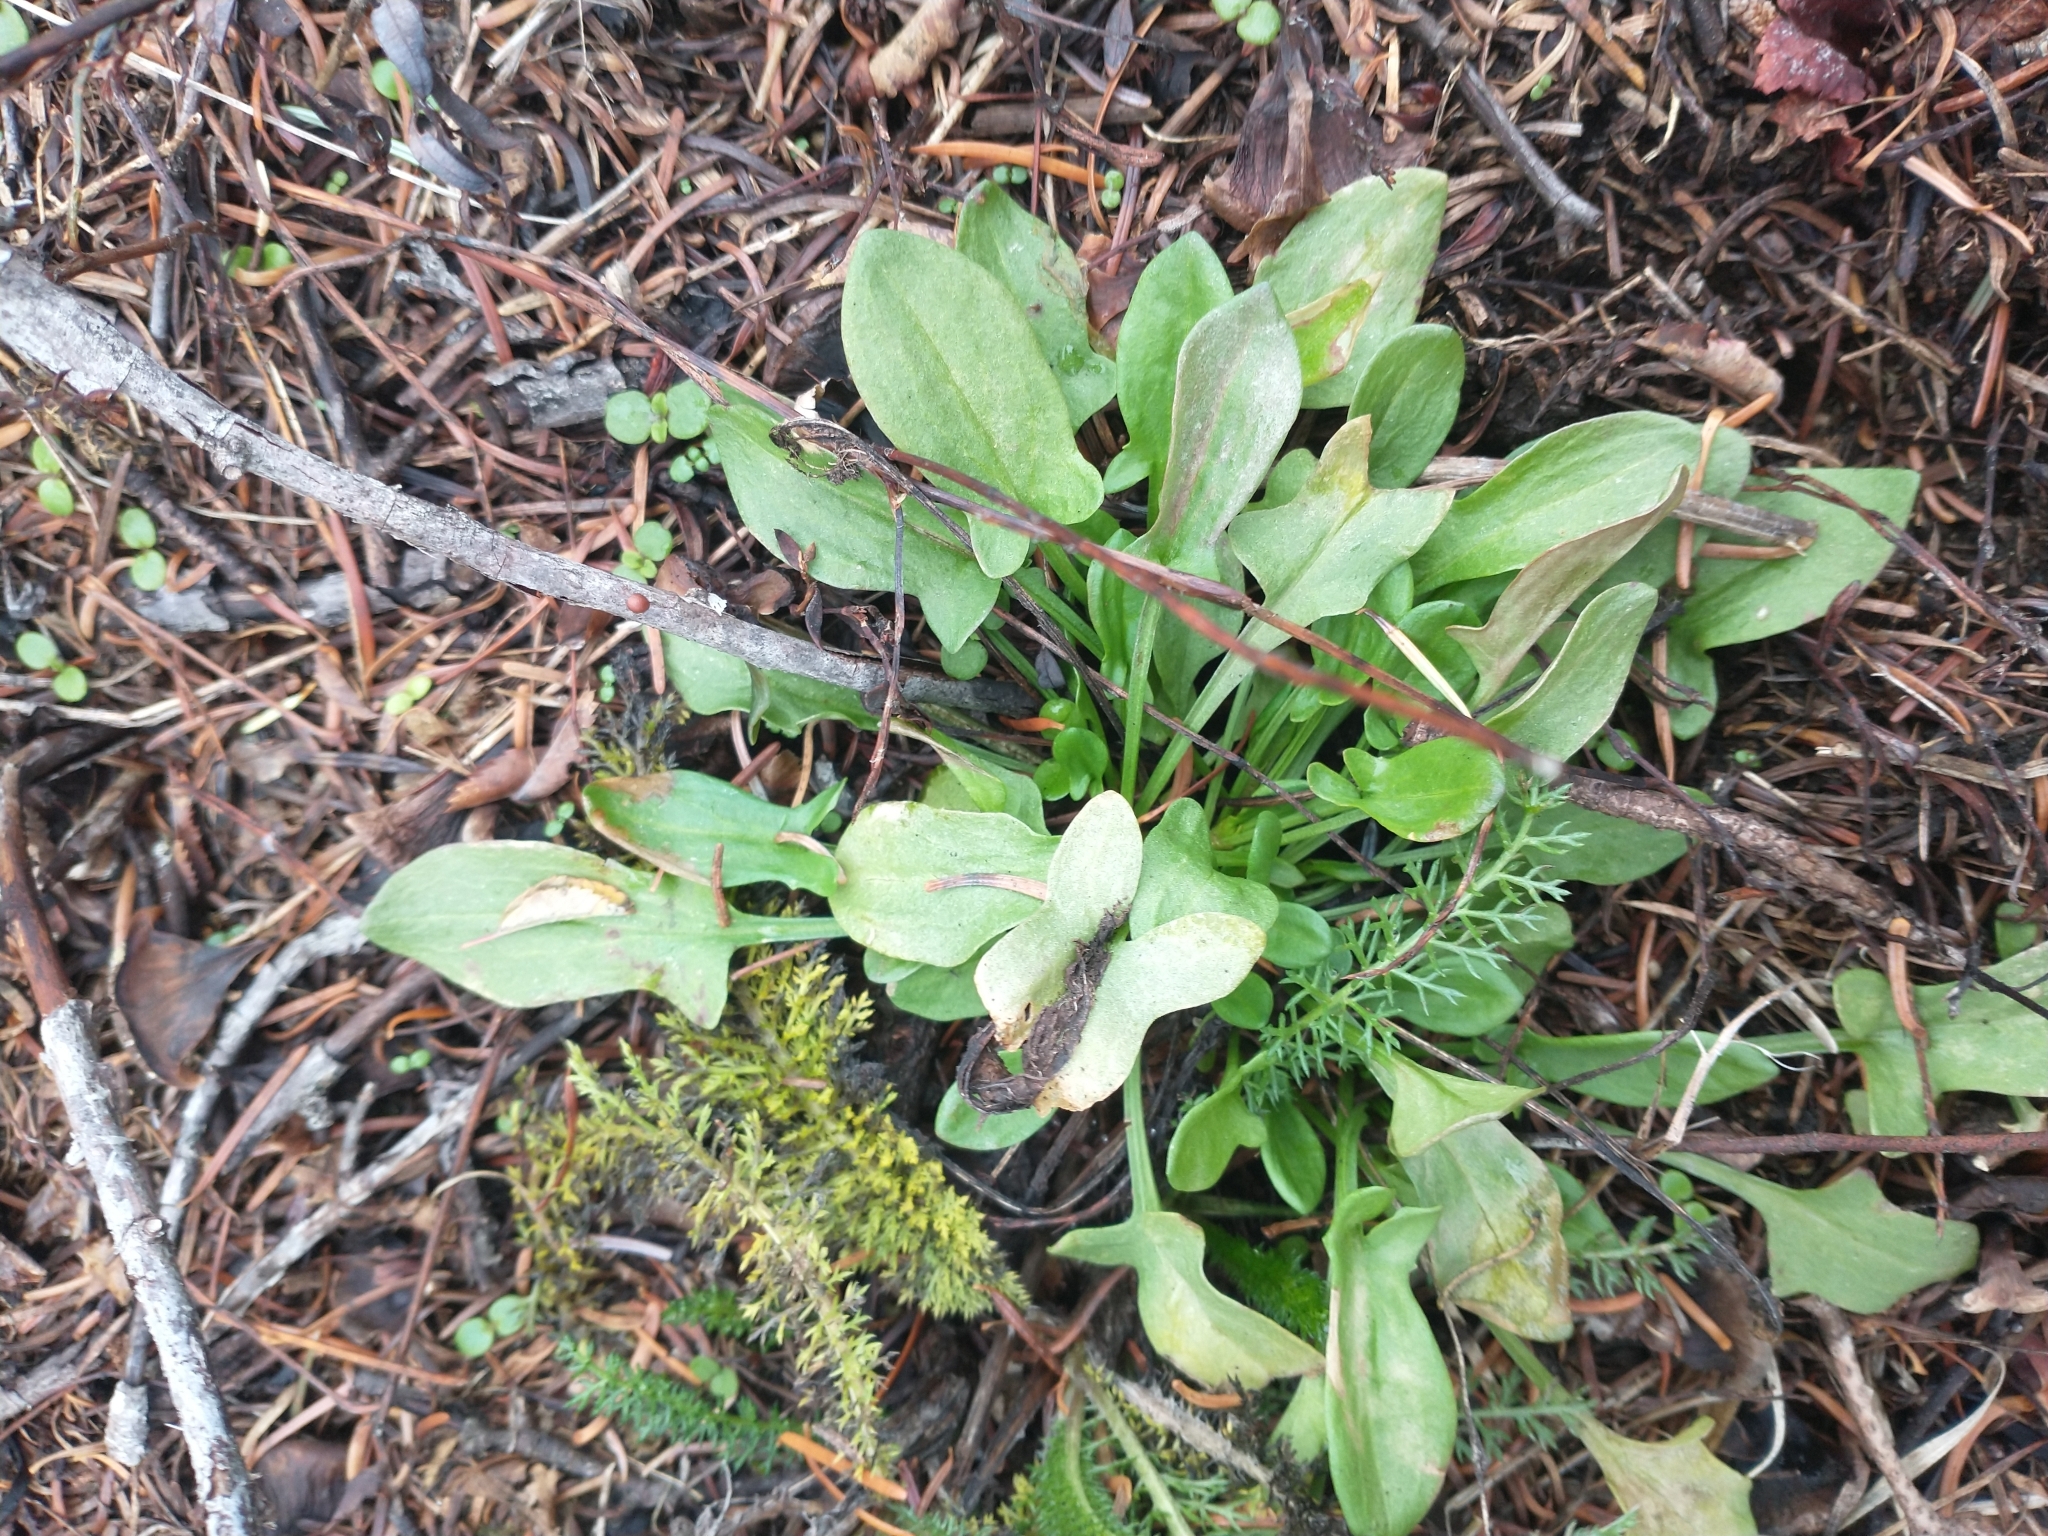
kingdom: Plantae
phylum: Tracheophyta
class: Magnoliopsida
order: Caryophyllales
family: Polygonaceae
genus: Rumex
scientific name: Rumex acetosella
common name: Common sheep sorrel
